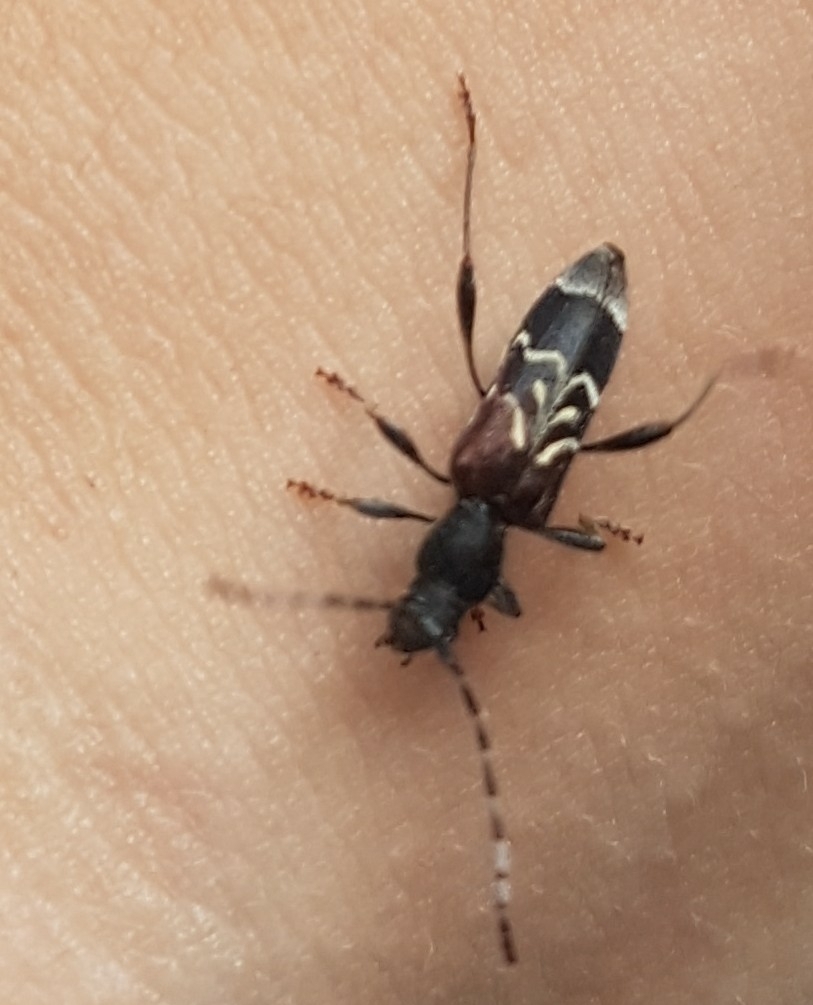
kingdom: Animalia
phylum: Arthropoda
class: Insecta
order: Coleoptera
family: Cerambycidae
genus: Anaglyptus
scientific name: Anaglyptus mysticus
